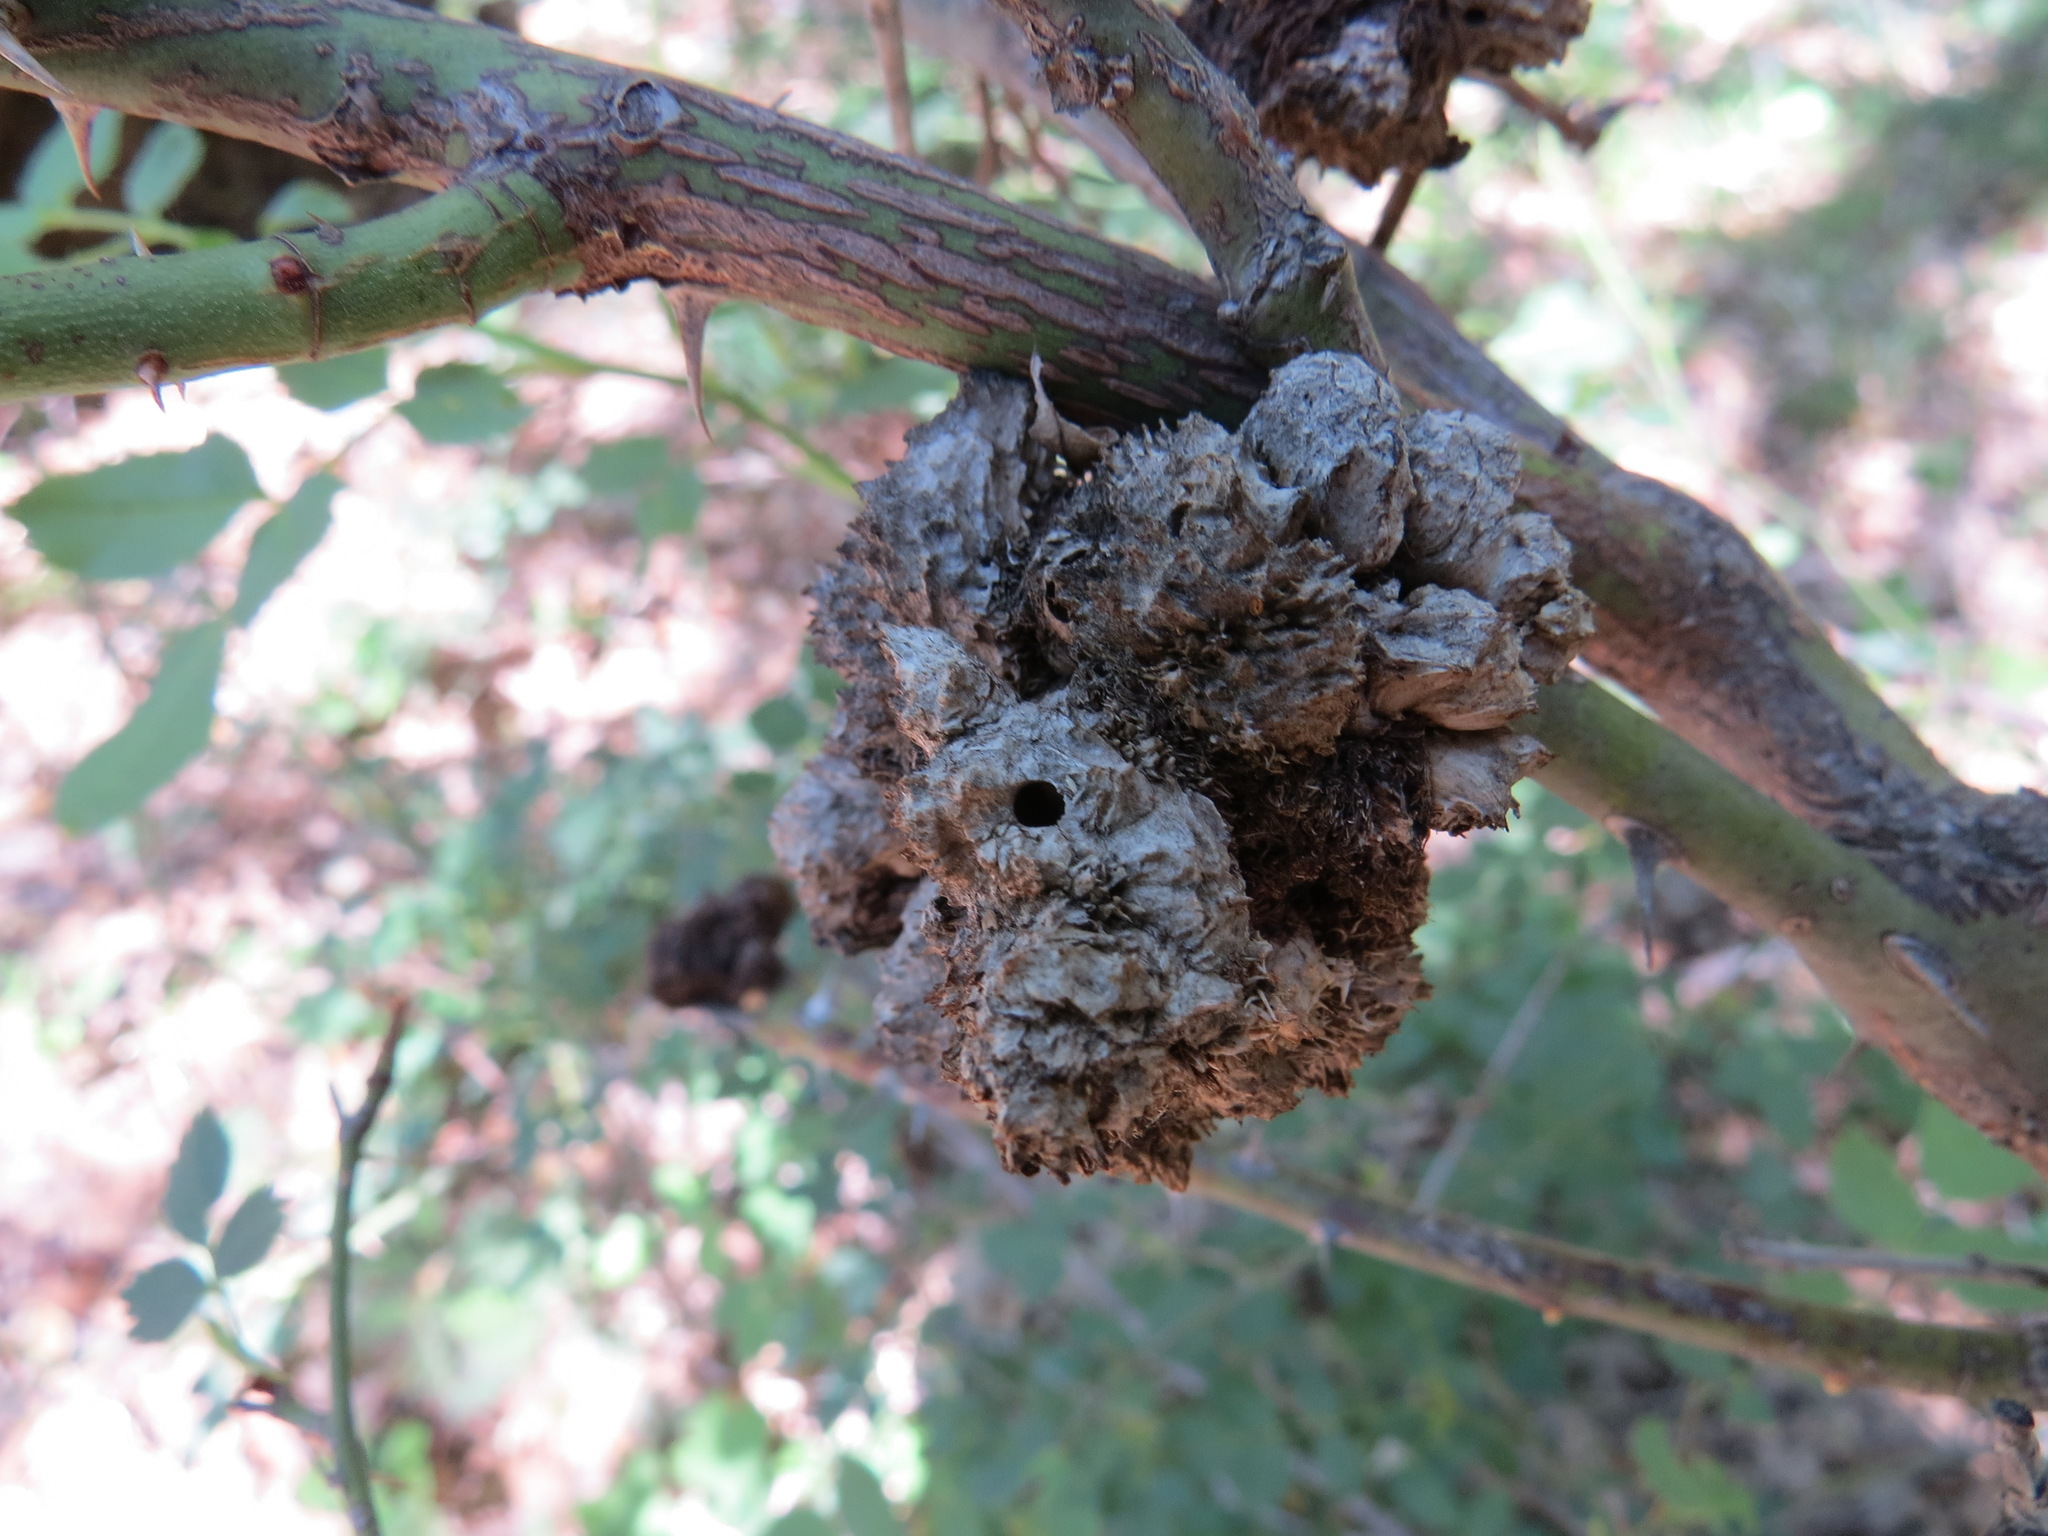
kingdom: Animalia
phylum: Arthropoda
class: Insecta
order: Hymenoptera
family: Cynipidae
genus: Diplolepis
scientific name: Diplolepis rosae
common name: Bedeguar gall
